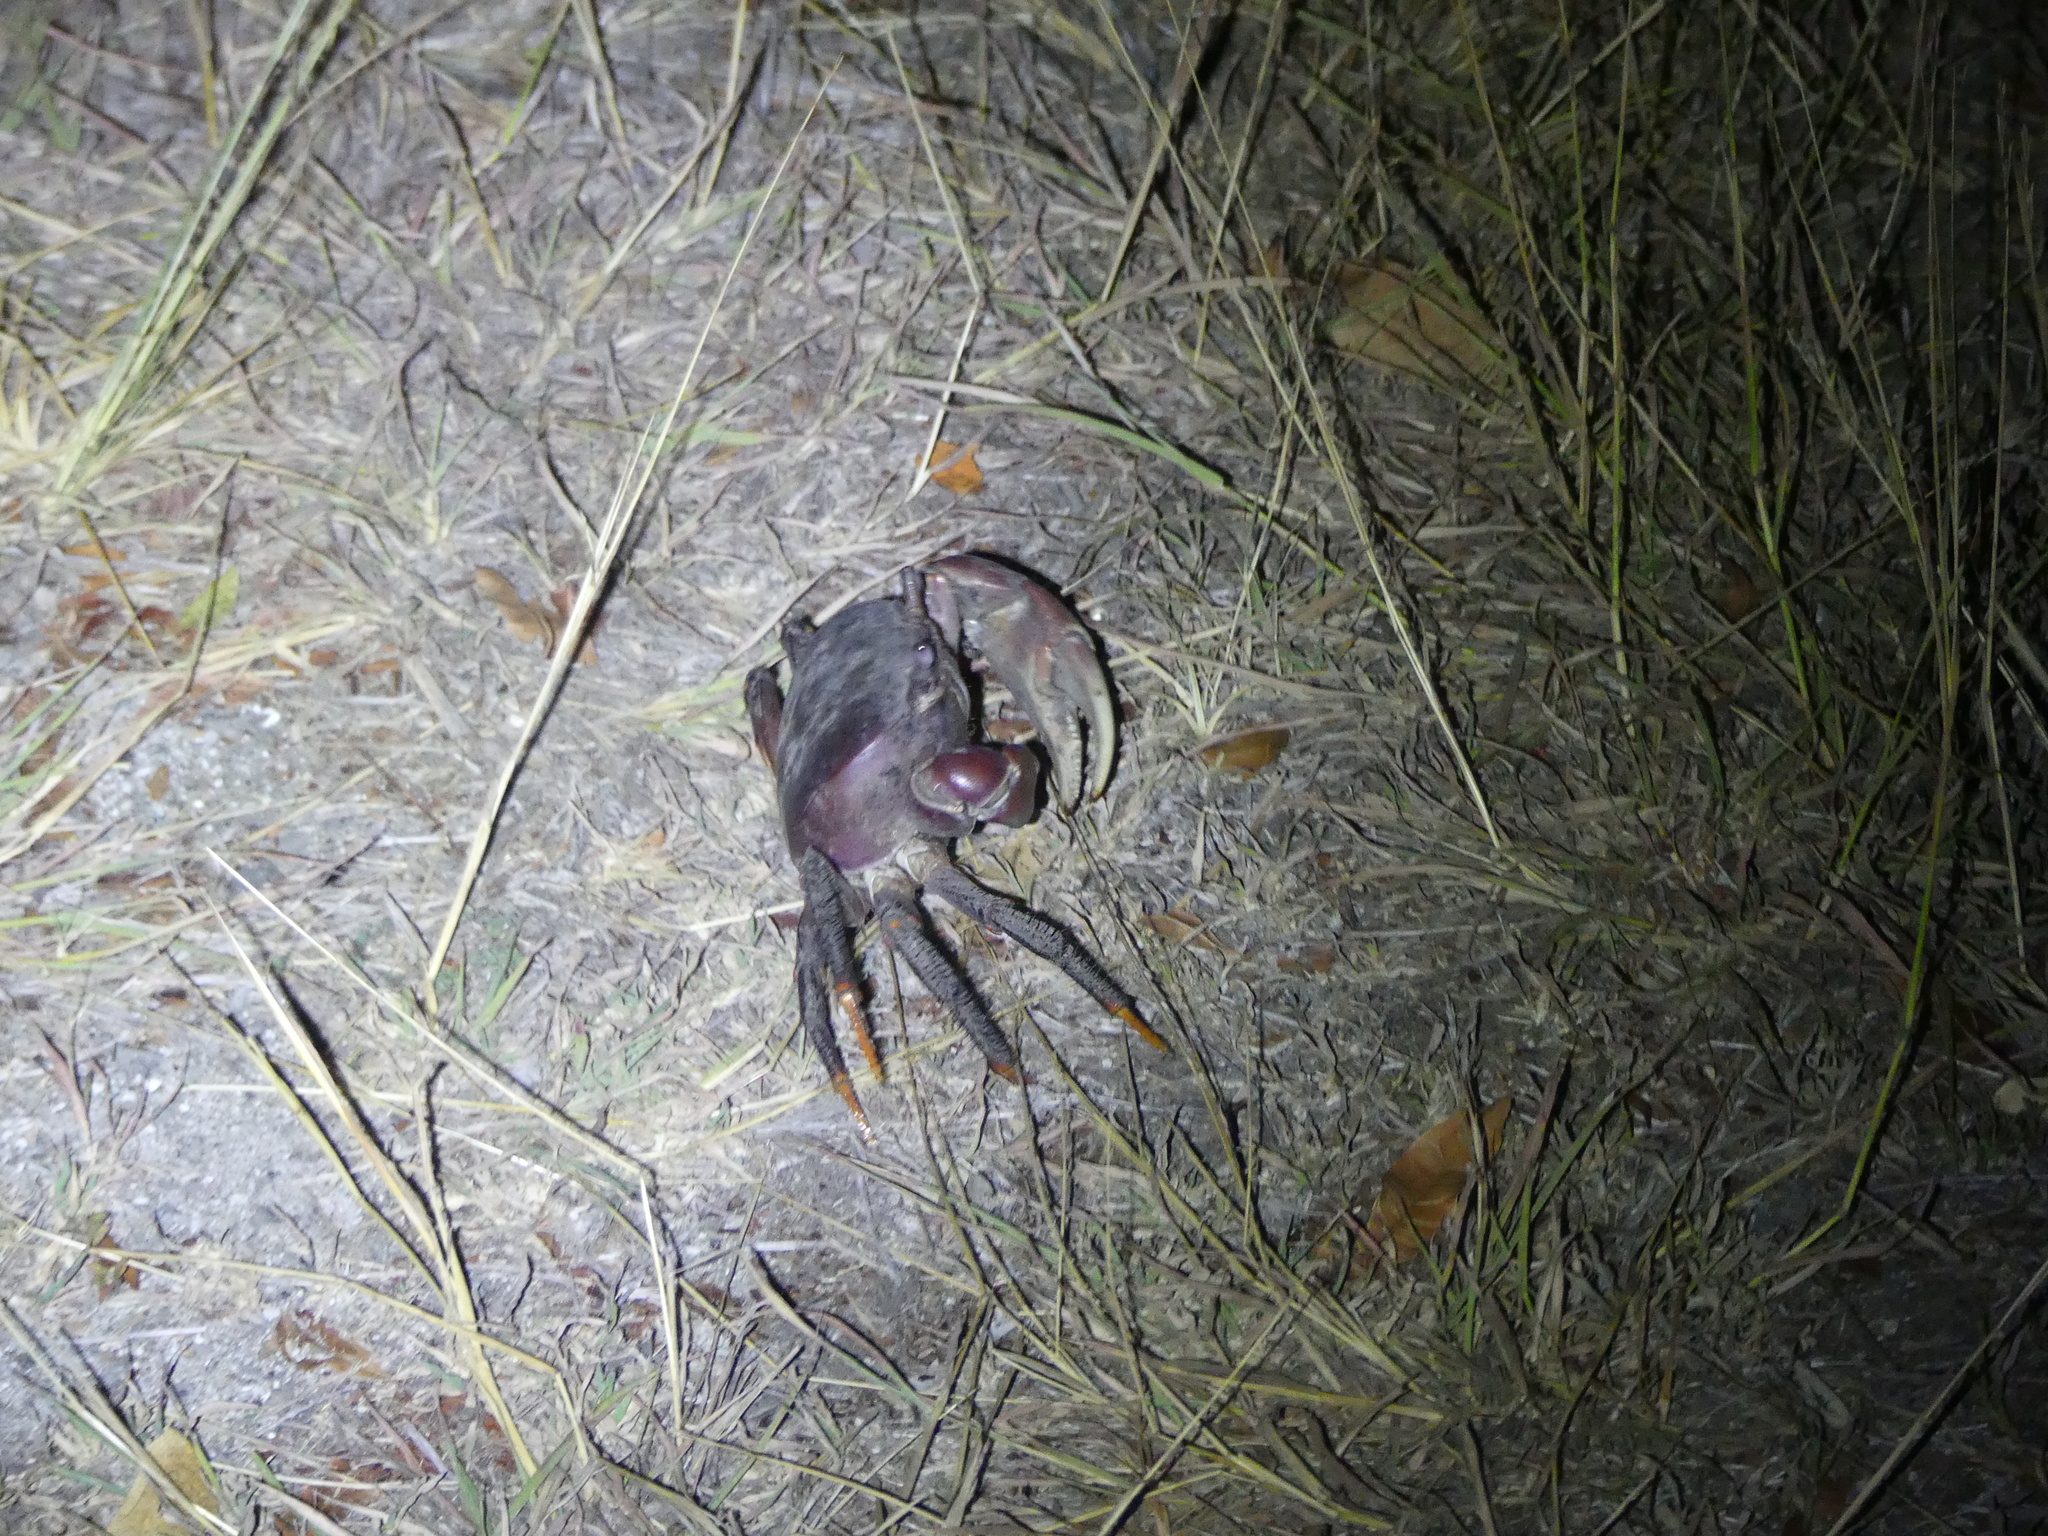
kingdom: Animalia
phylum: Arthropoda
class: Malacostraca
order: Decapoda
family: Gecarcinidae
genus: Cardisoma
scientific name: Cardisoma carnifex
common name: Brown land crab
